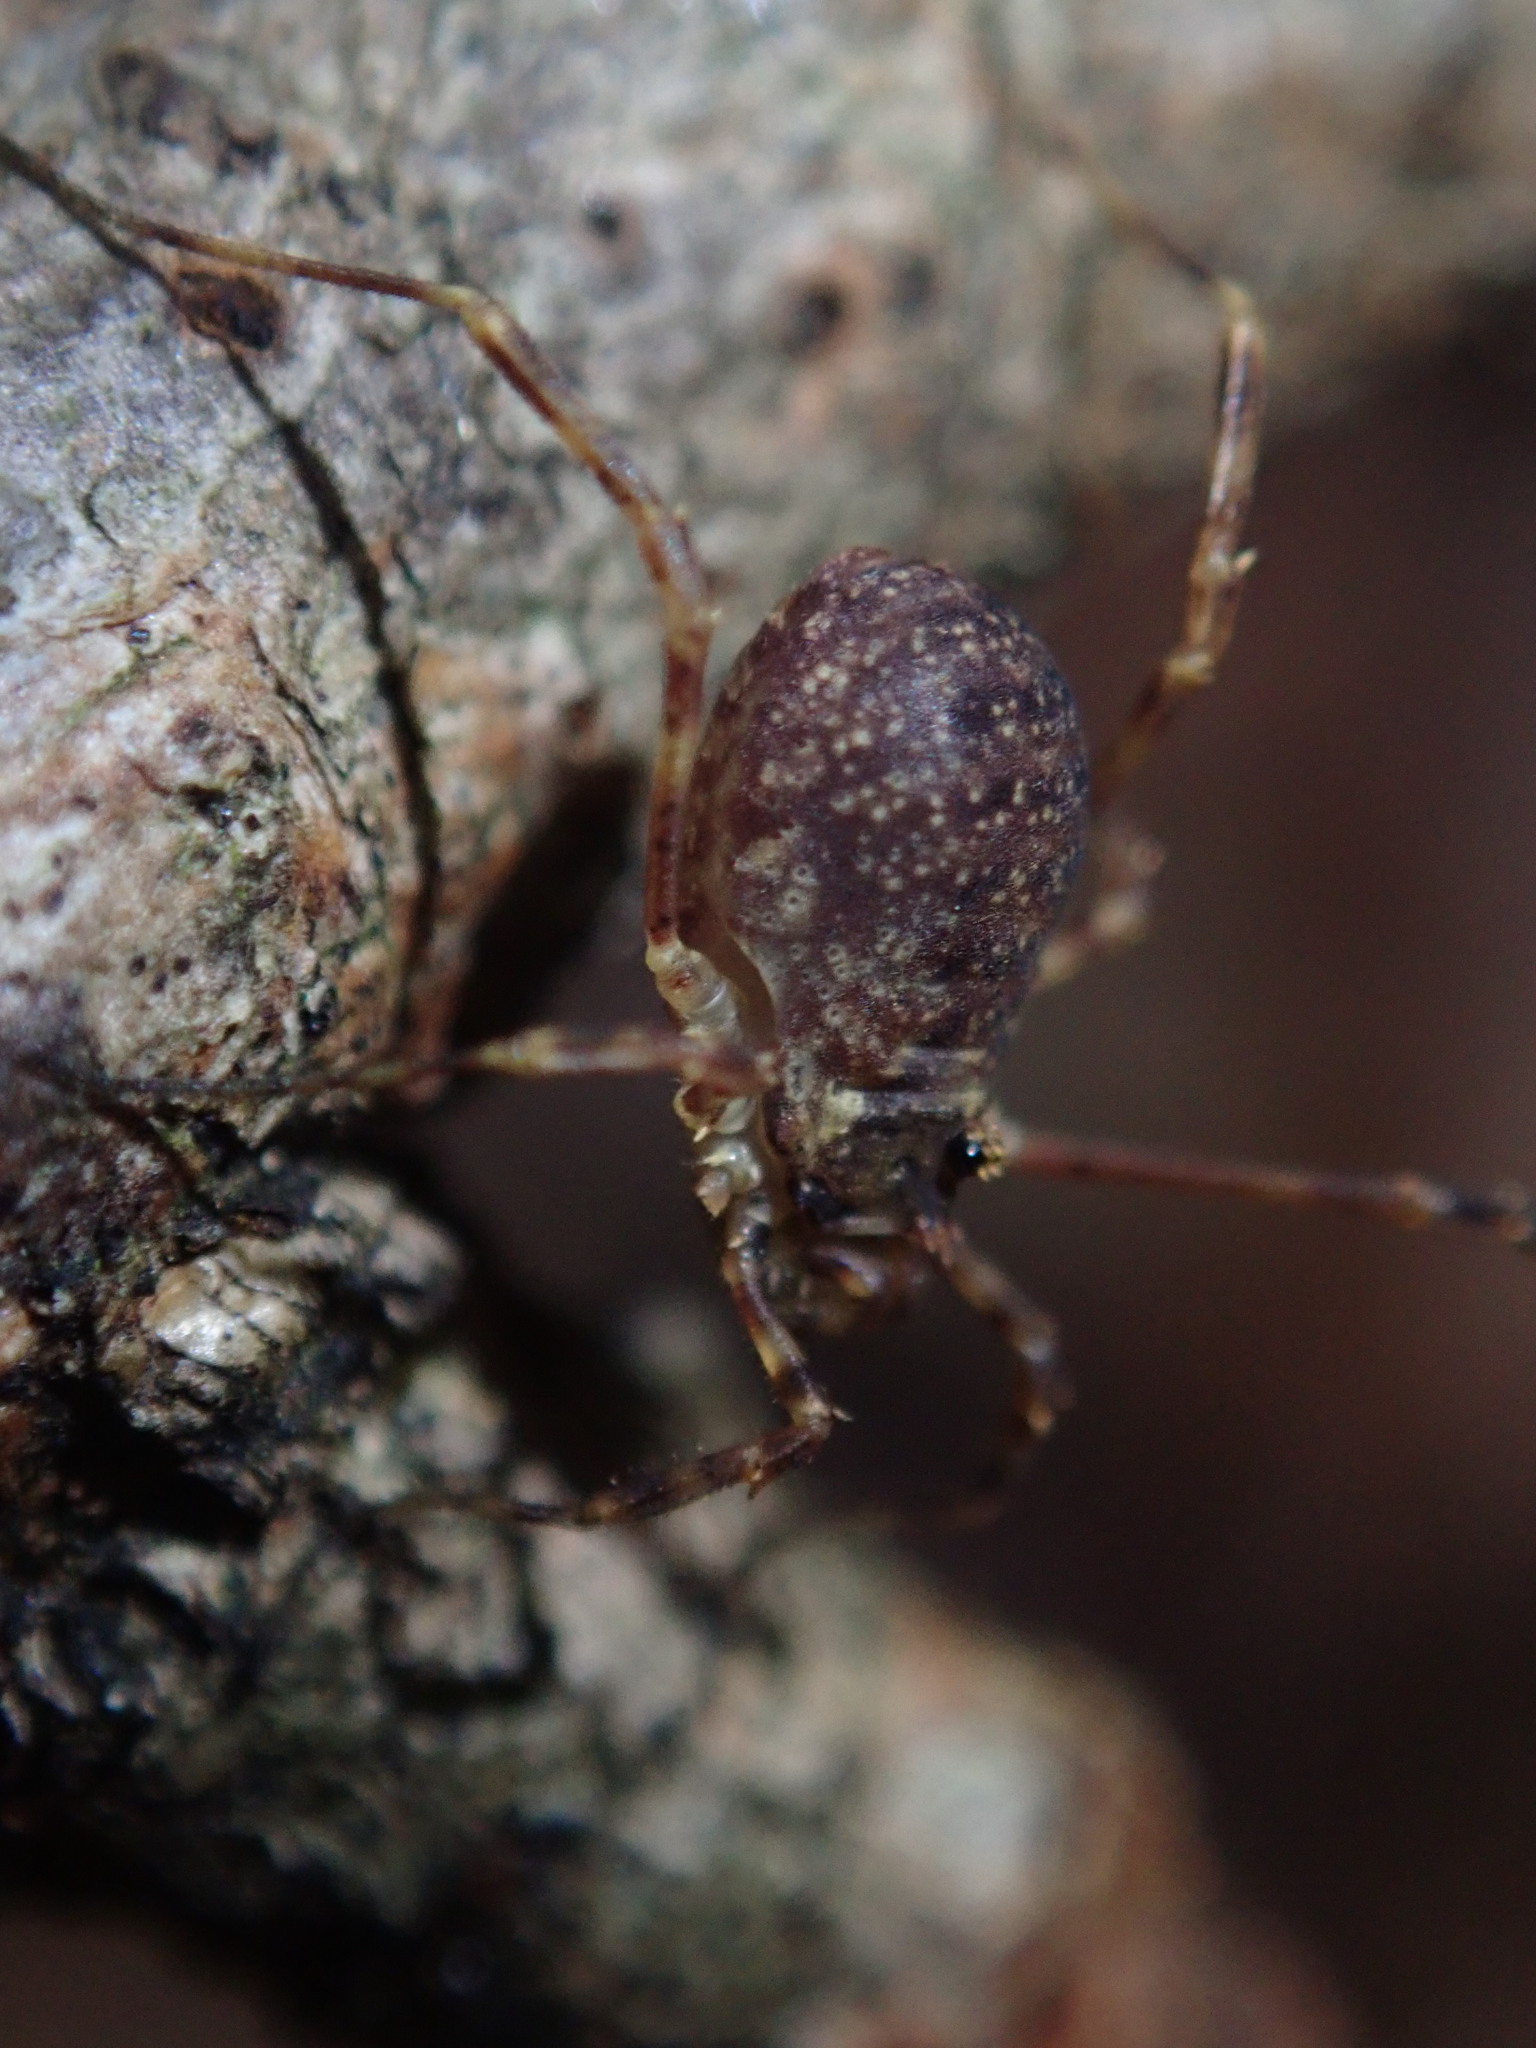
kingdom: Animalia
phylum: Arthropoda
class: Arachnida
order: Opiliones
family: Phalangiidae
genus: Lophopilio
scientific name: Lophopilio palpinalis
